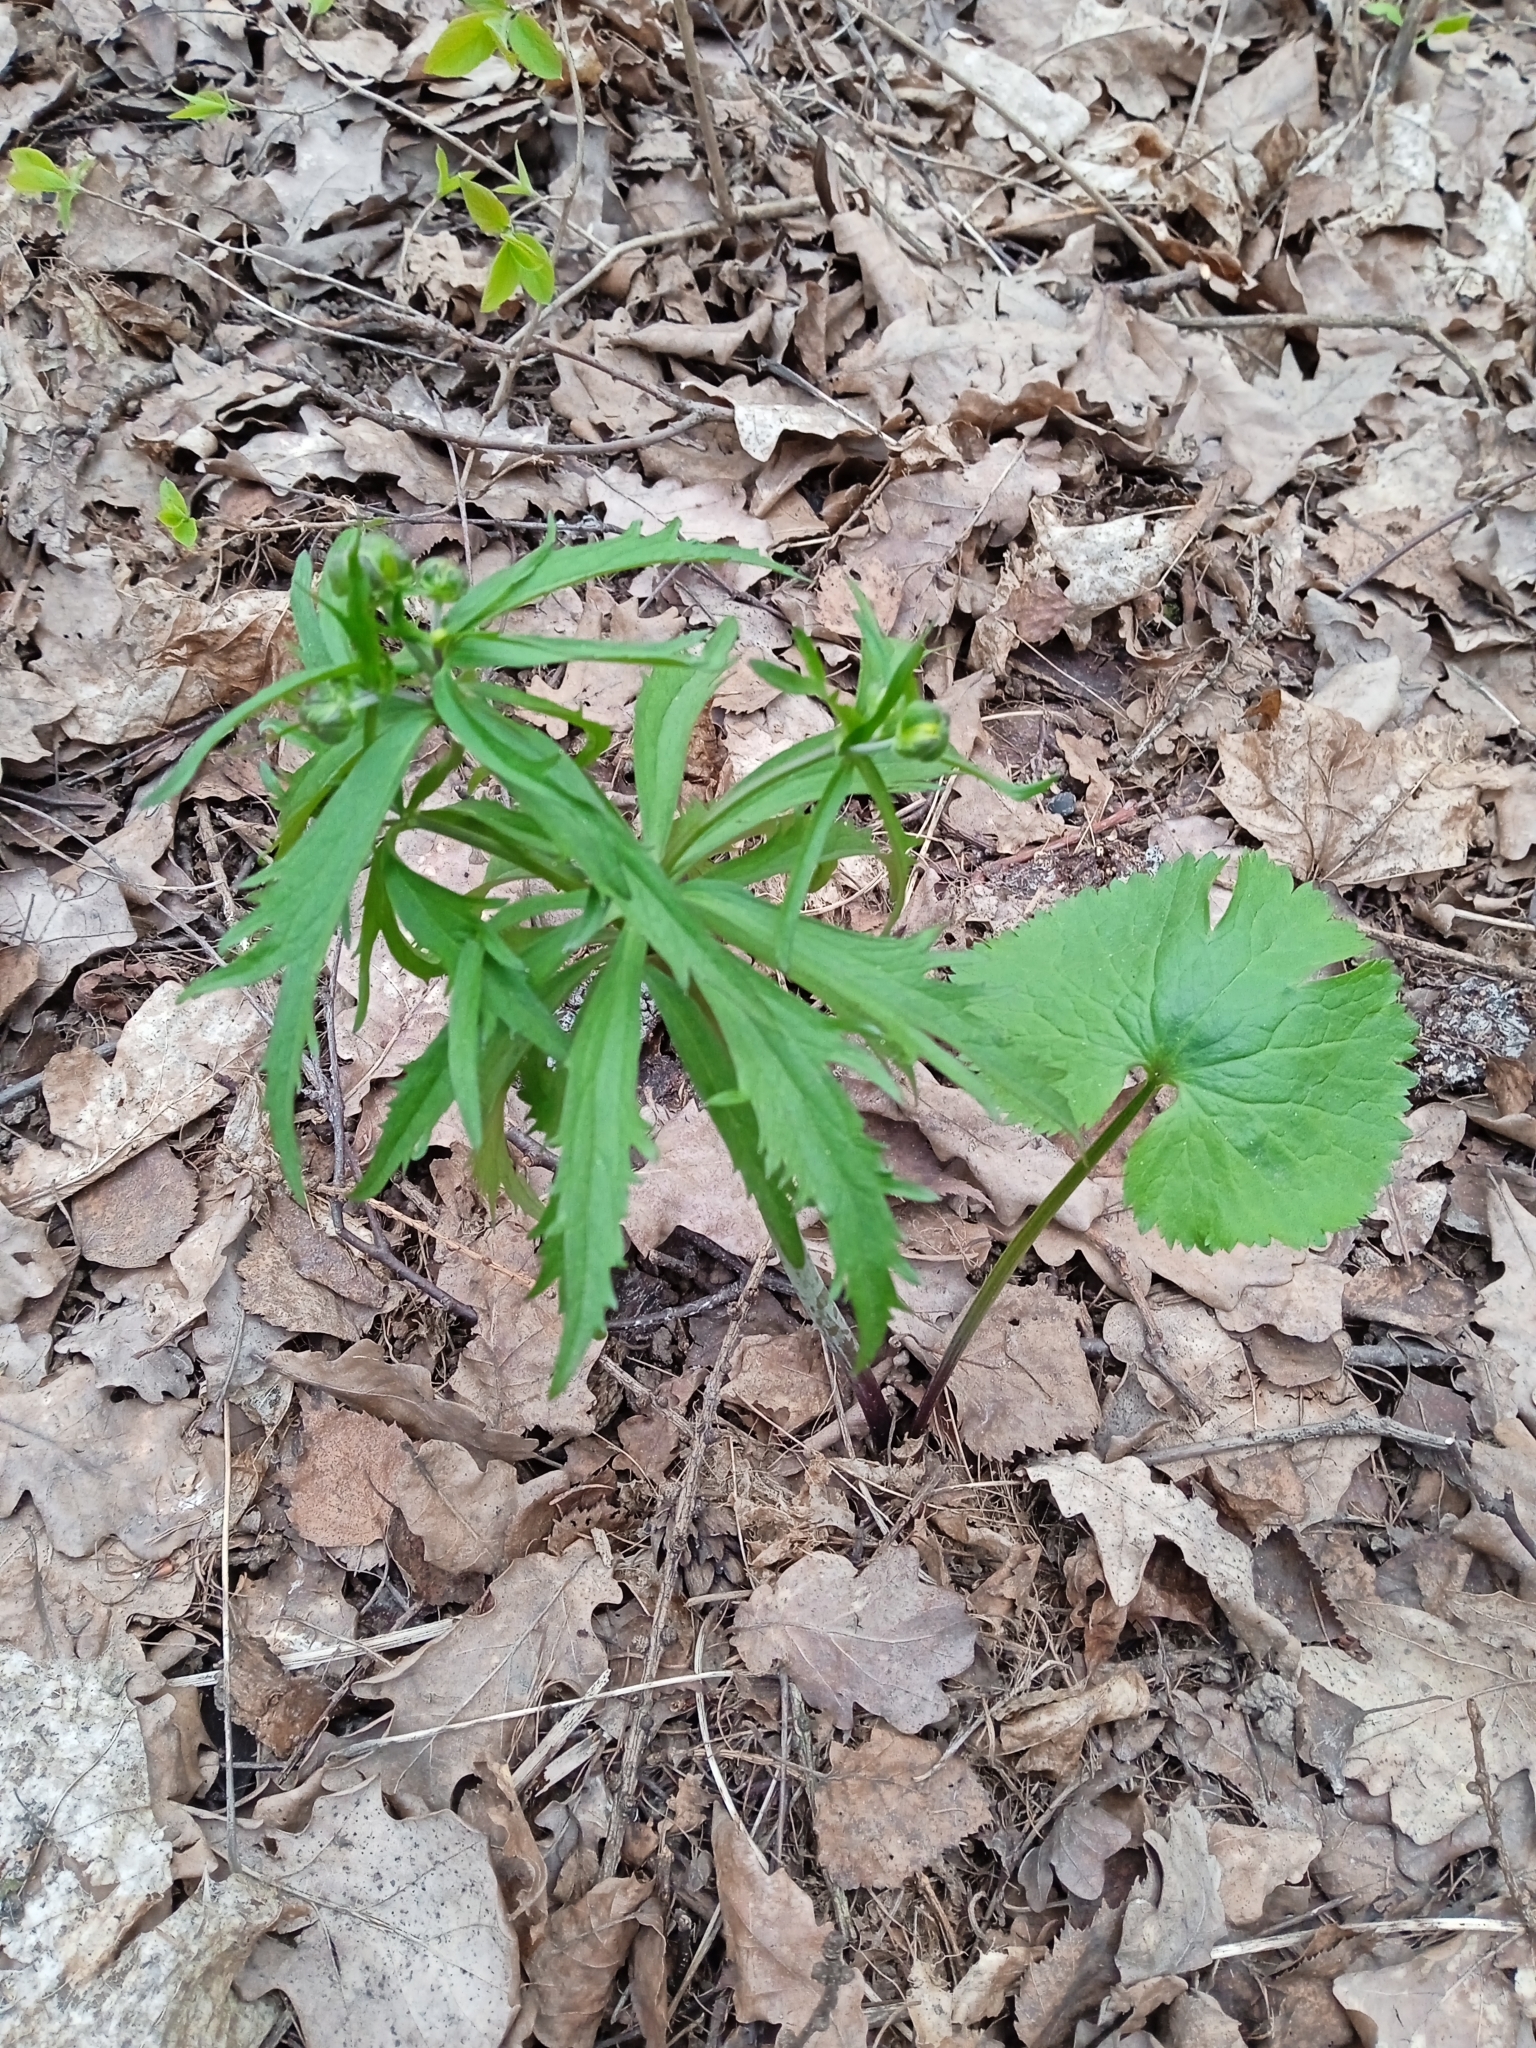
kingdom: Plantae
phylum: Tracheophyta
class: Magnoliopsida
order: Ranunculales
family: Ranunculaceae
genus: Ranunculus
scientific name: Ranunculus cassubicus
